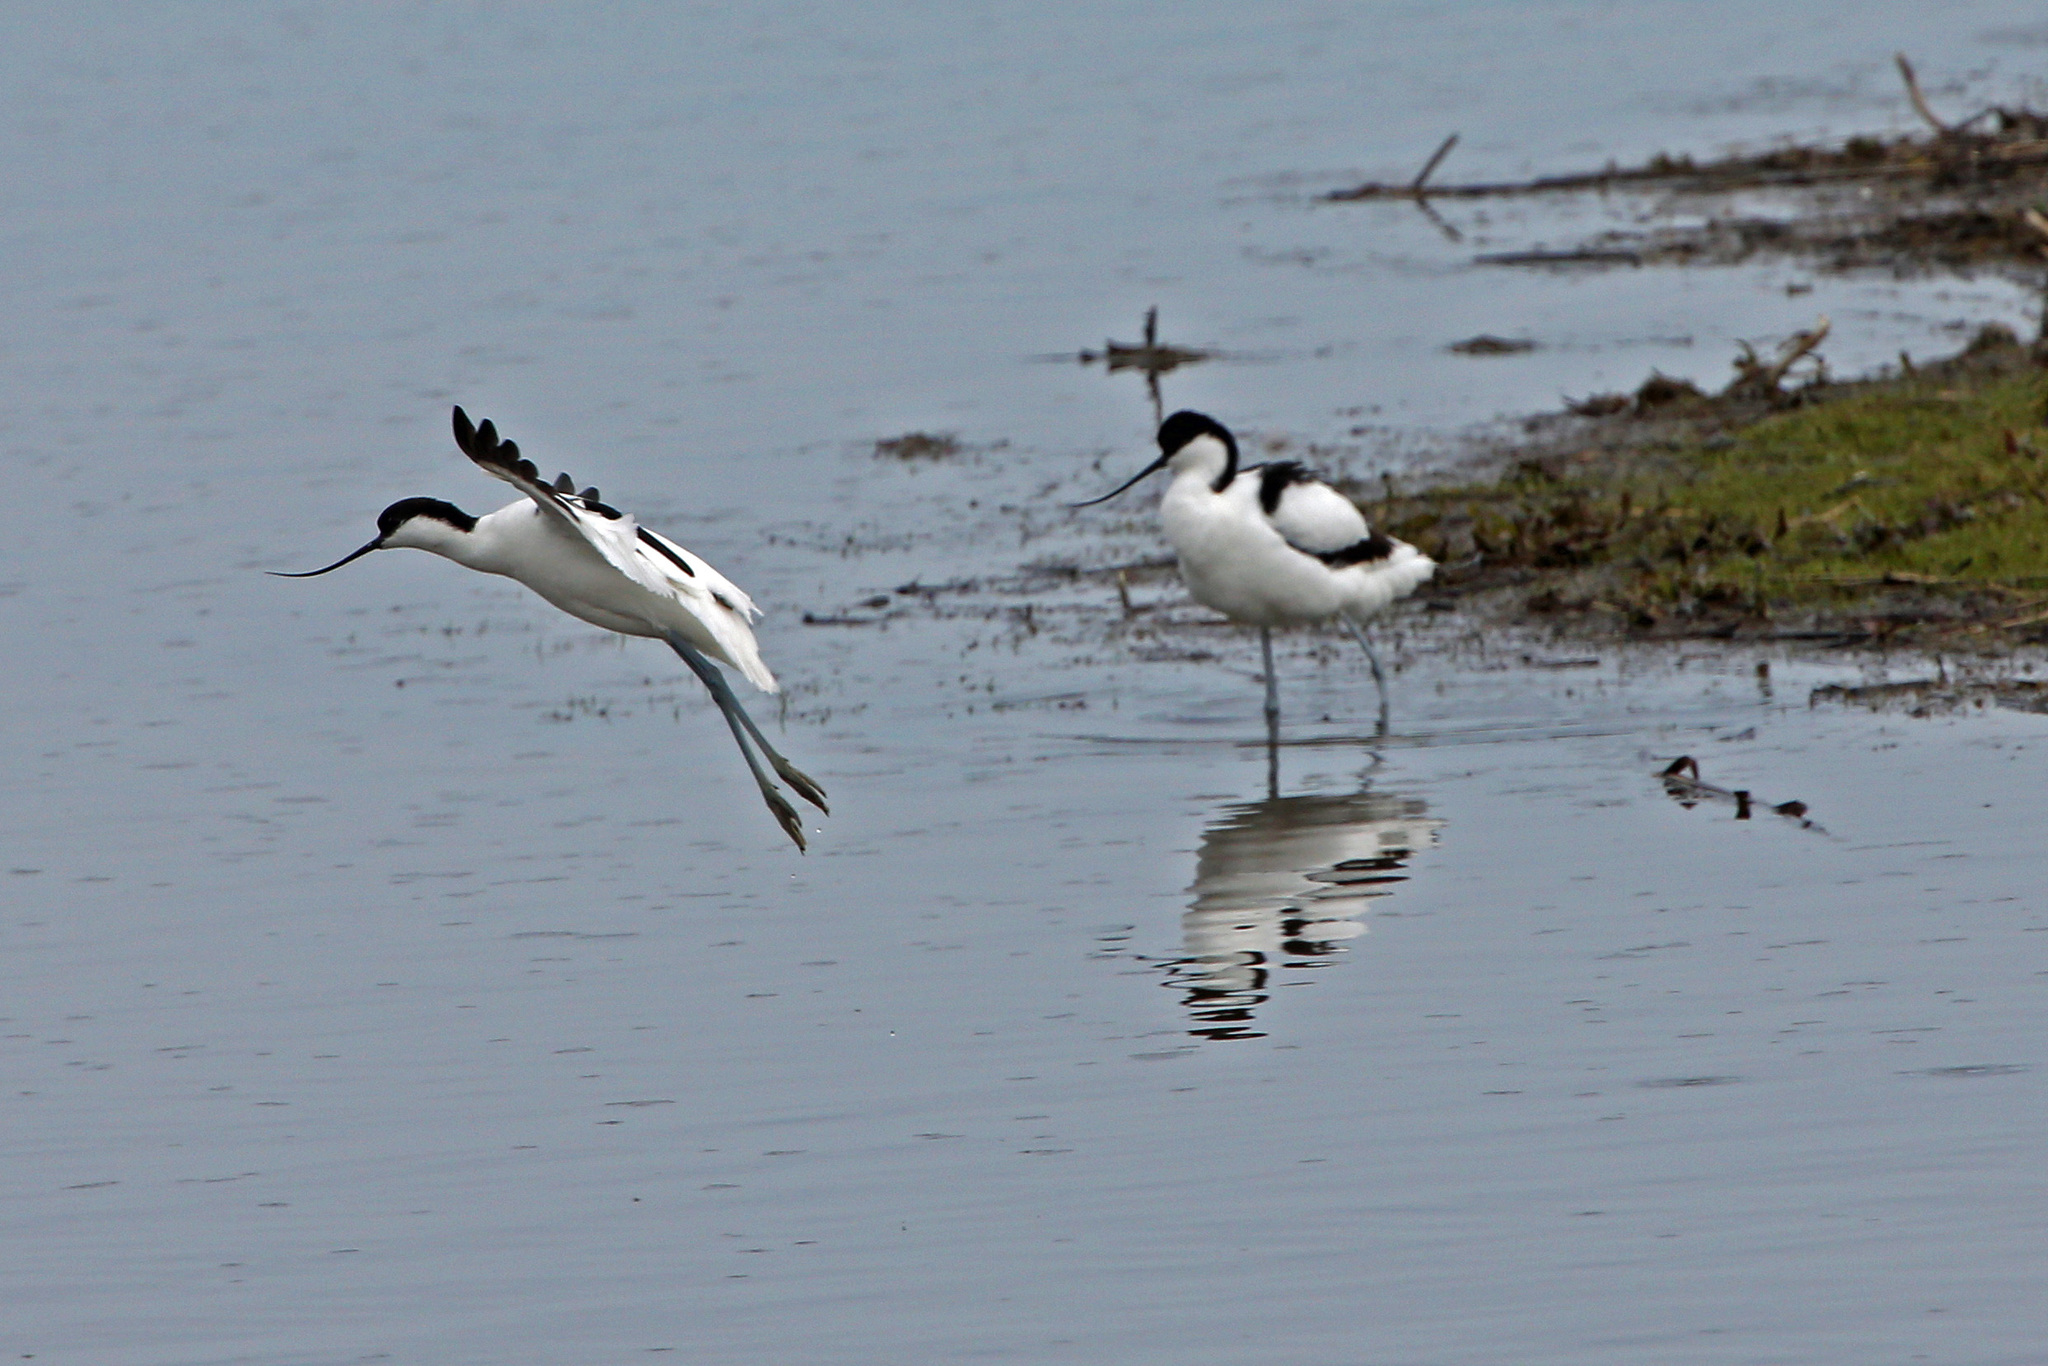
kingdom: Animalia
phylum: Chordata
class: Aves
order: Charadriiformes
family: Recurvirostridae
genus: Recurvirostra
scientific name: Recurvirostra avosetta
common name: Pied avocet
